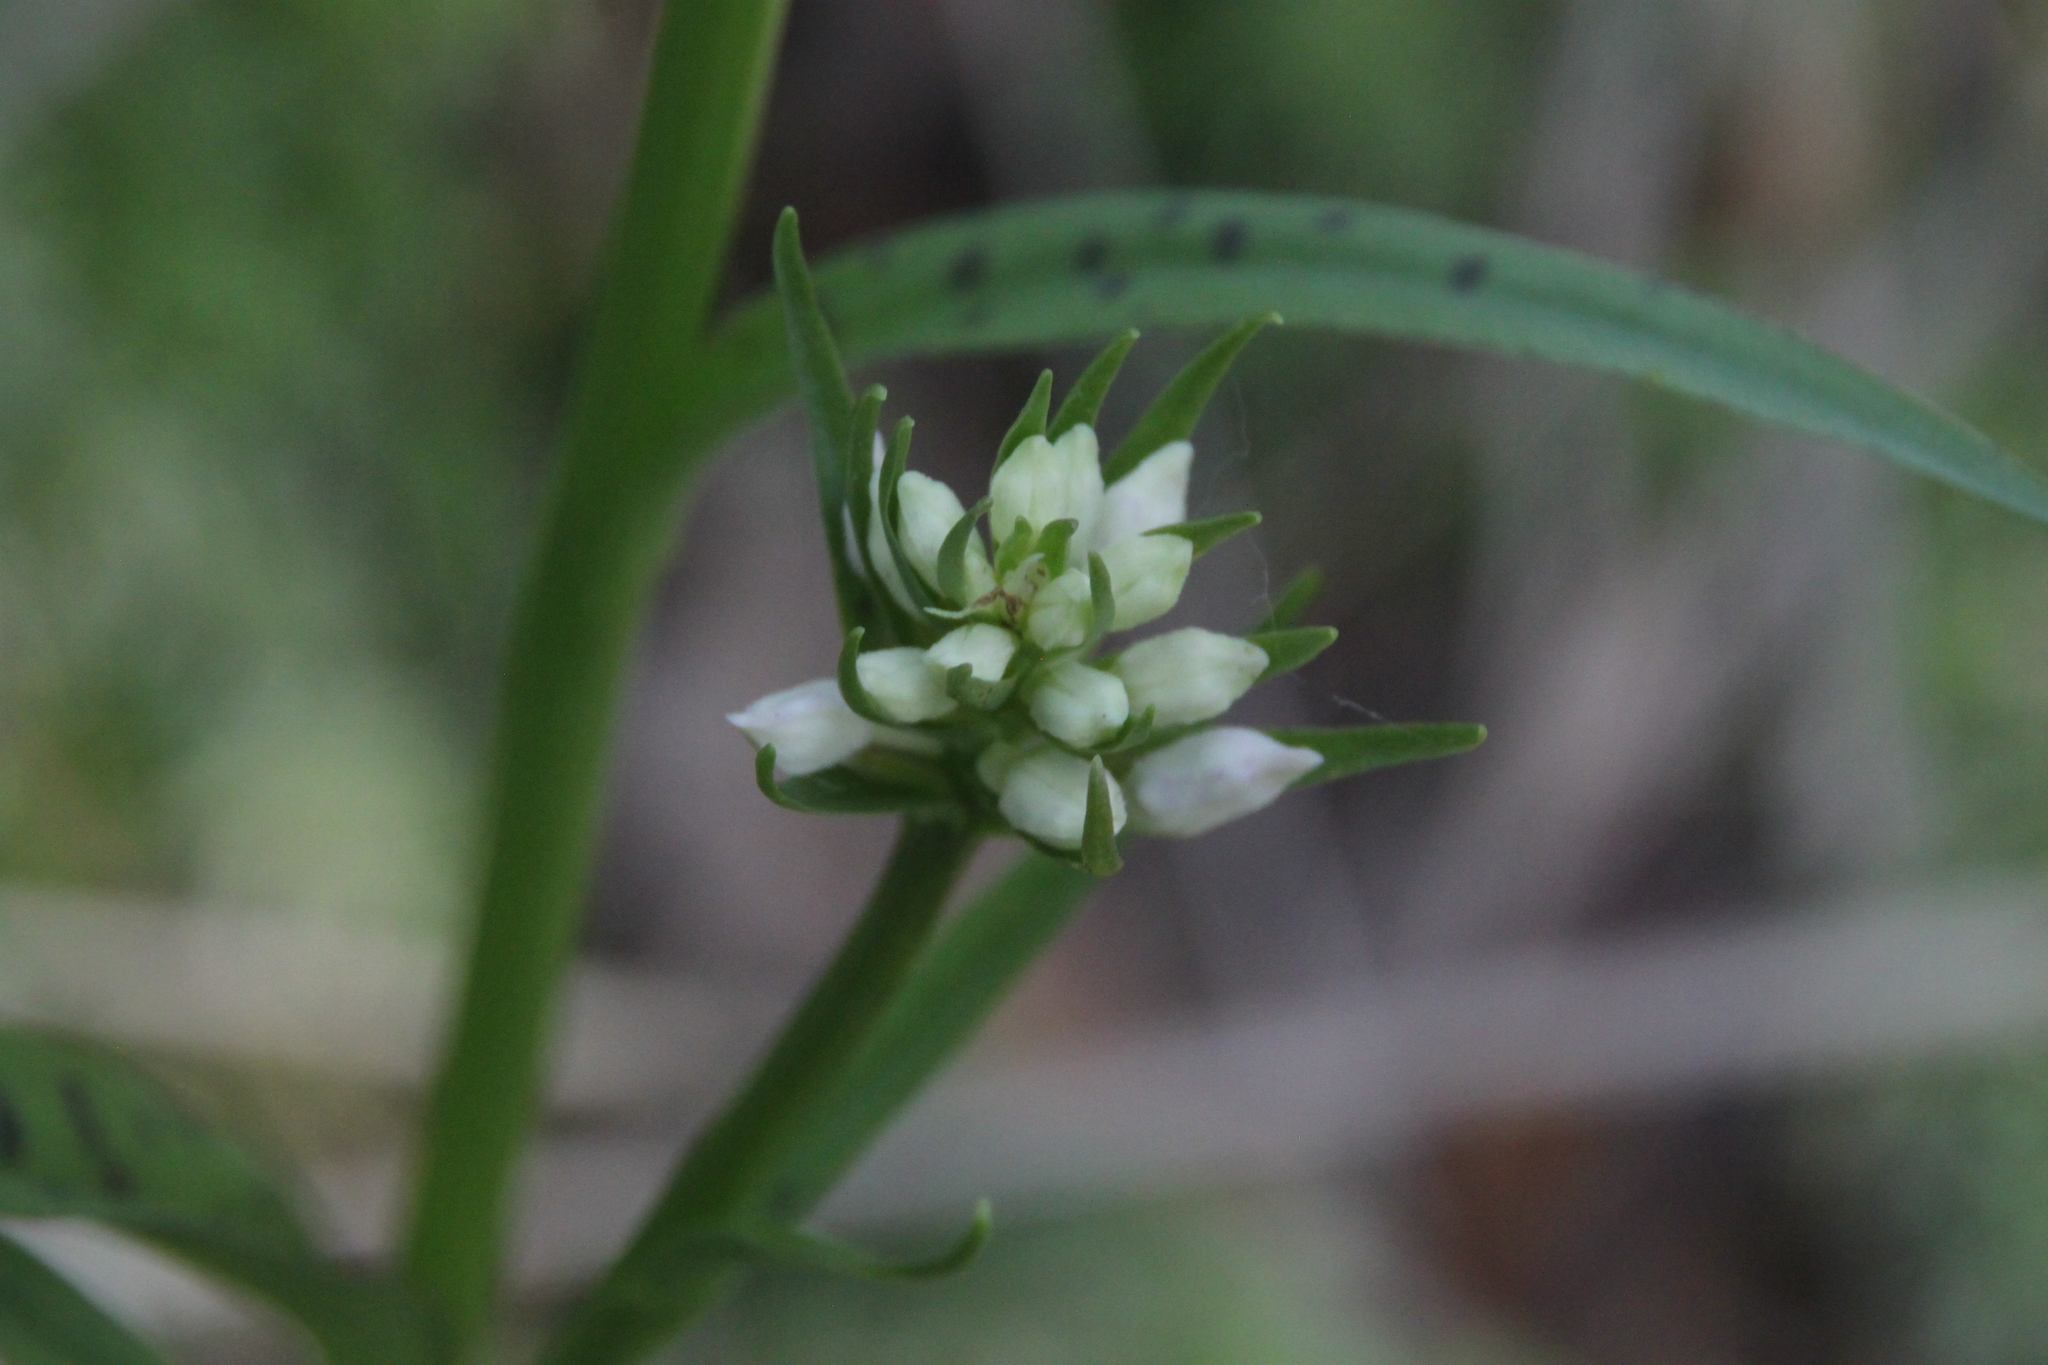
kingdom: Plantae
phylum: Tracheophyta
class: Liliopsida
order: Asparagales
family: Orchidaceae
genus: Dactylorhiza
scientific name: Dactylorhiza maculata
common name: Heath spotted-orchid
